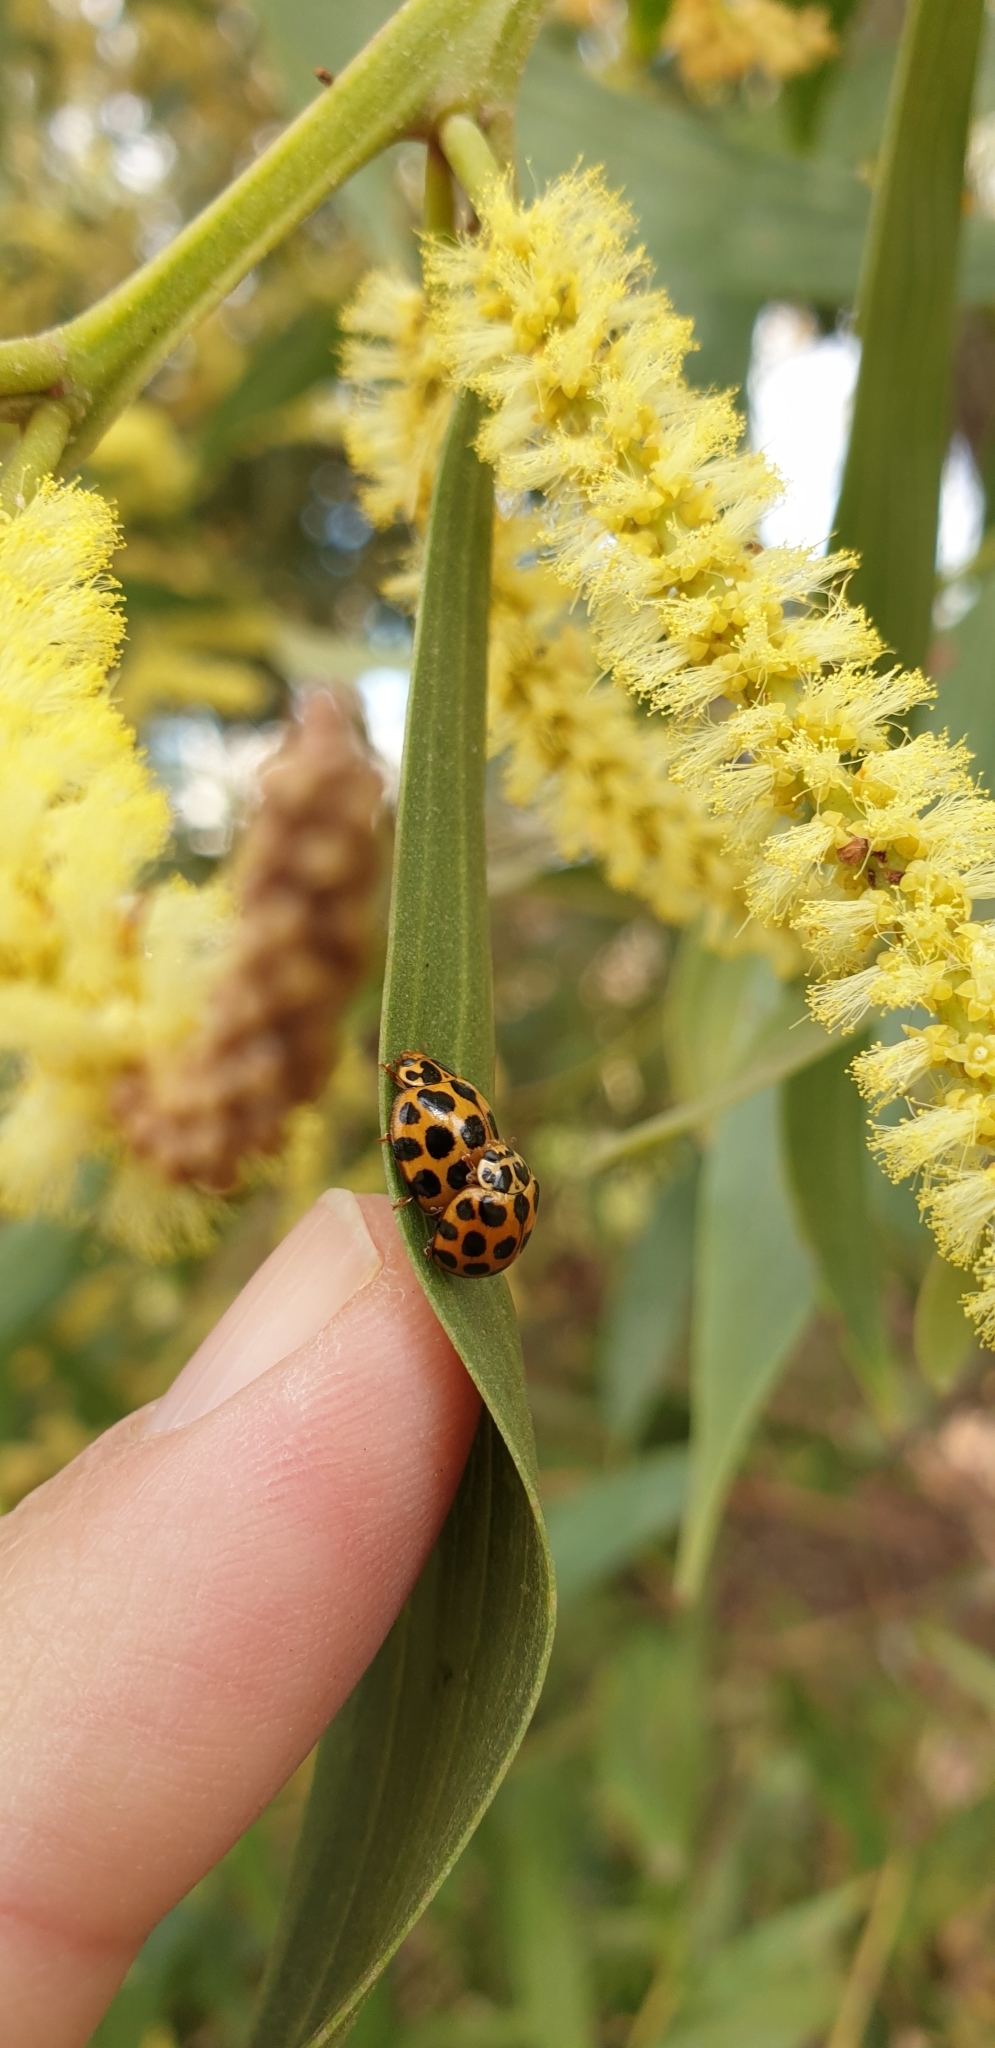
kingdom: Animalia
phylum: Arthropoda
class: Insecta
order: Coleoptera
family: Coccinellidae
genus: Harmonia
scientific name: Harmonia conformis
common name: Common spotted ladybird beetle
